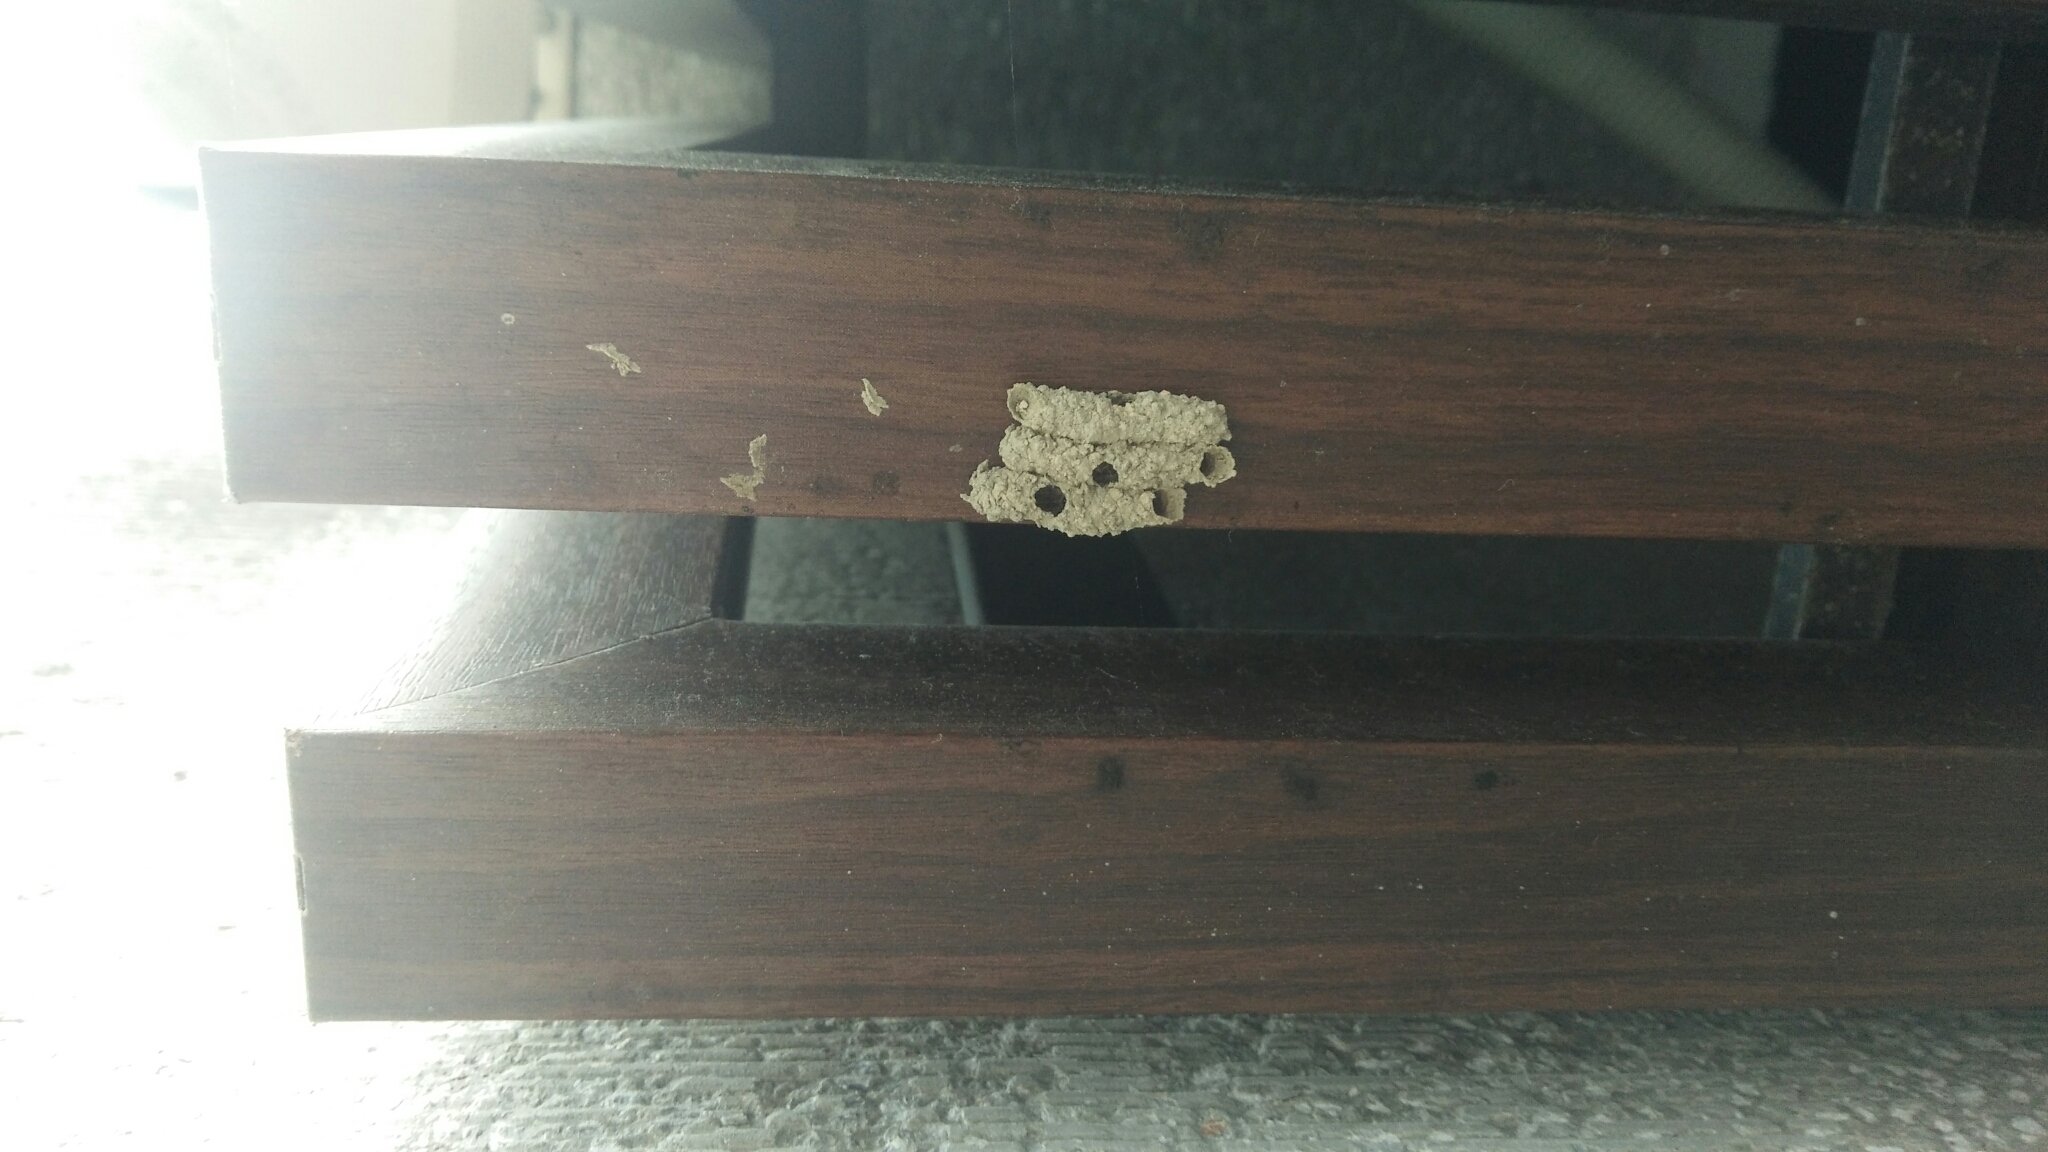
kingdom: Animalia
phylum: Arthropoda
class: Insecta
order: Hymenoptera
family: Eumenidae
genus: Paraleptomenes
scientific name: Paraleptomenes miniatus
